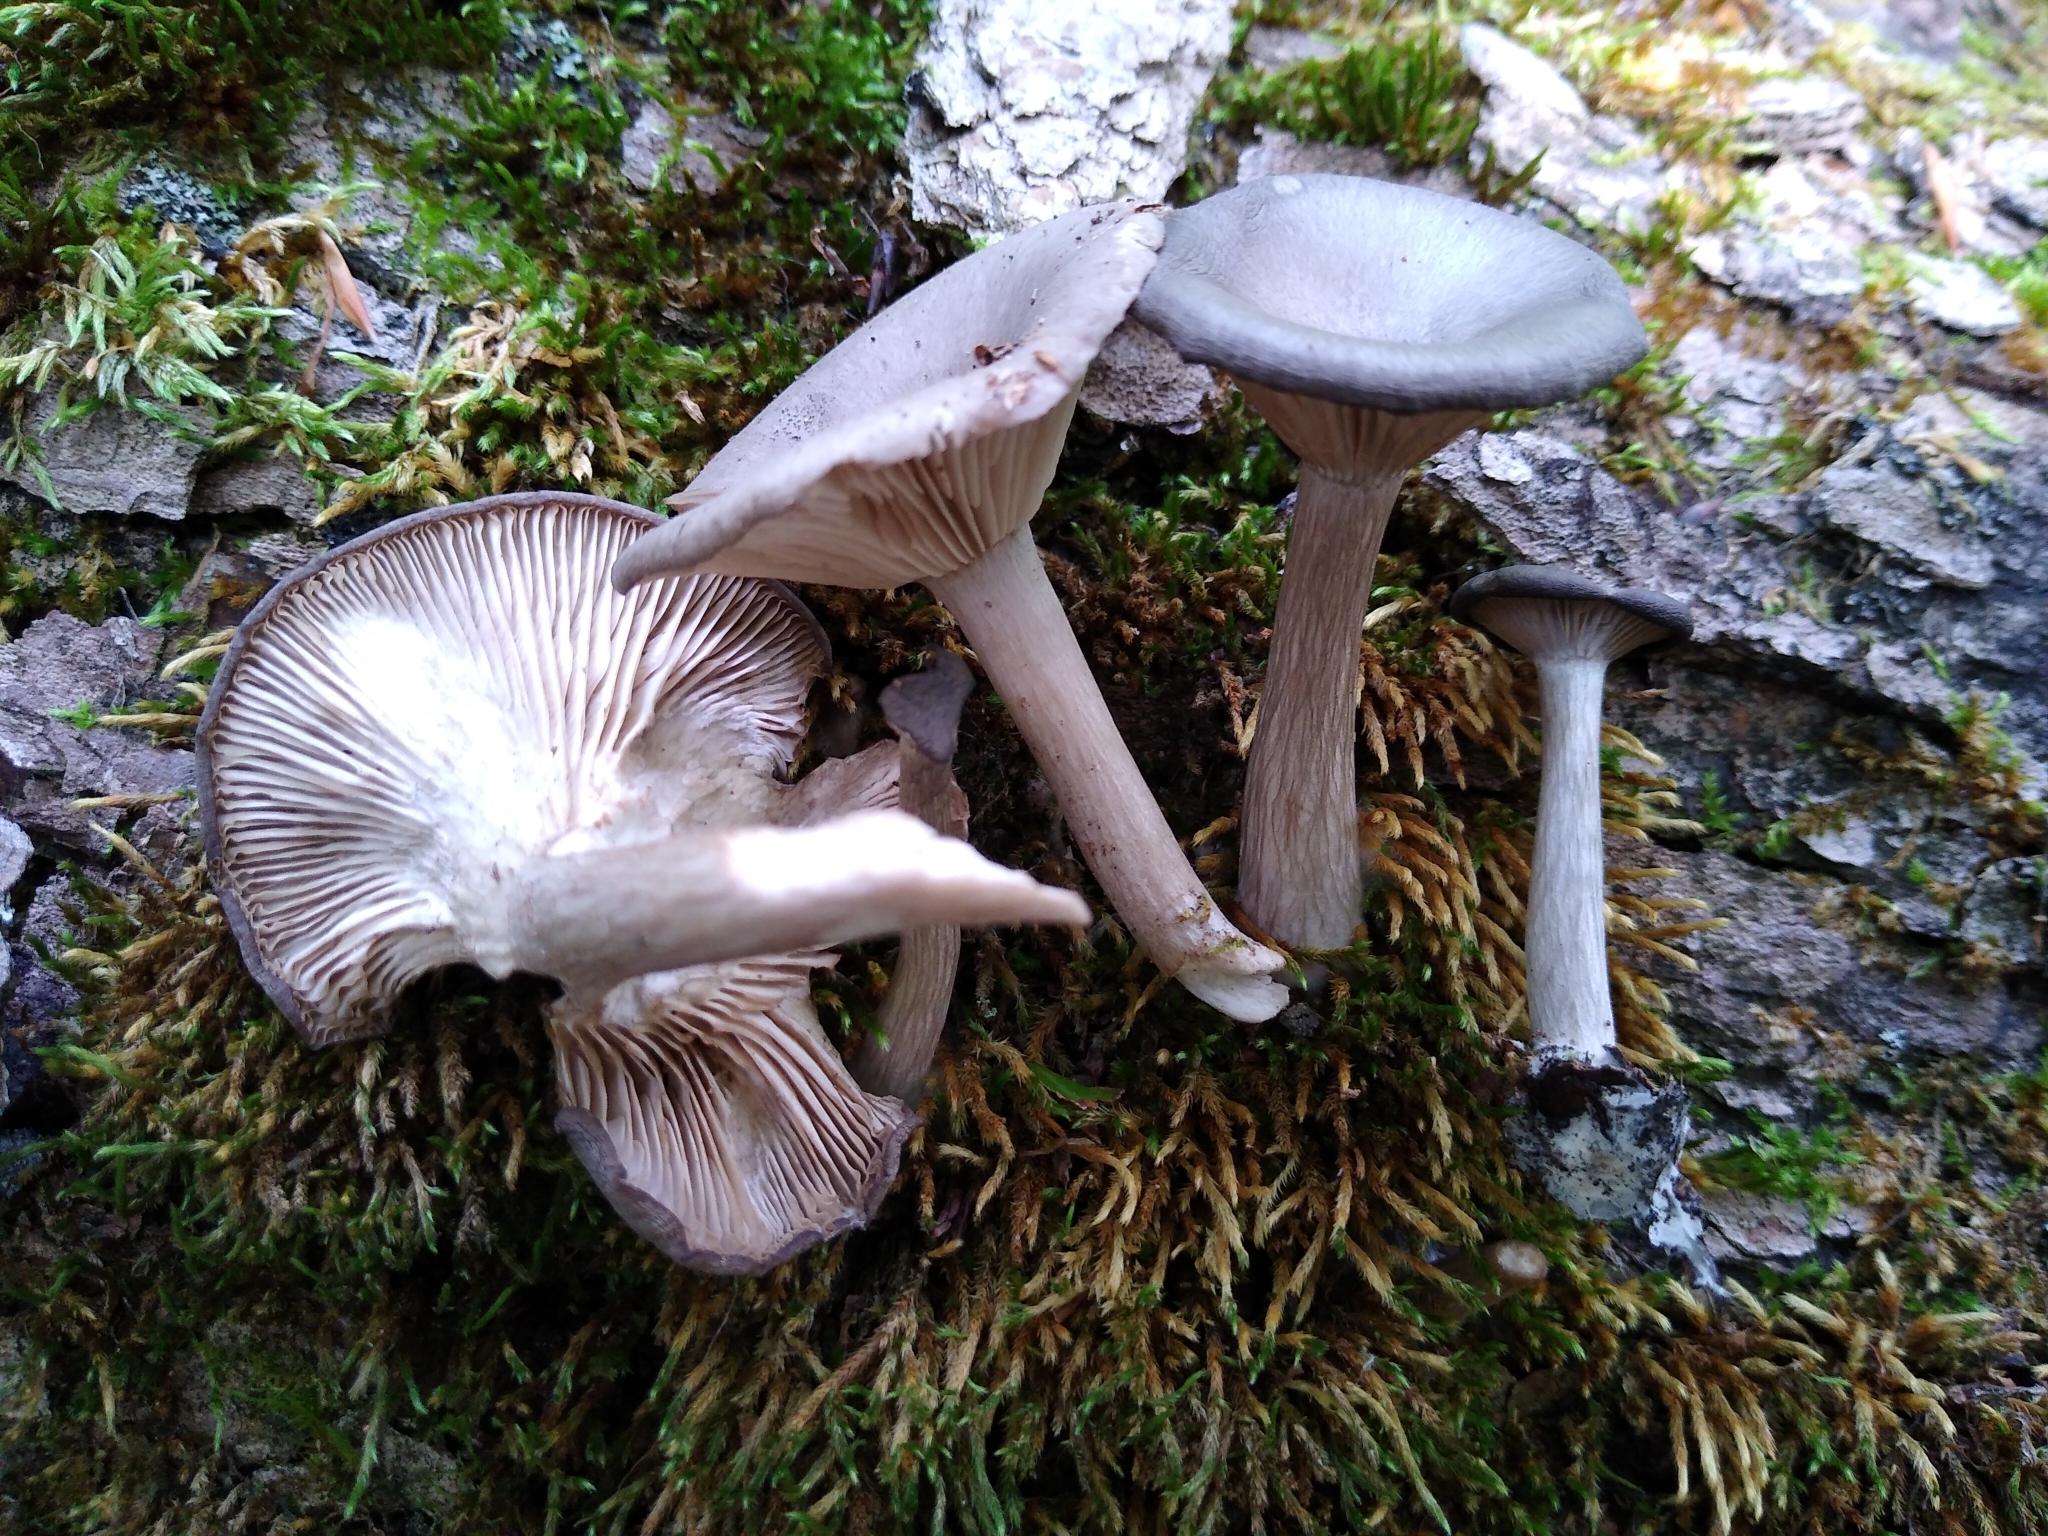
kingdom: Fungi
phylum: Basidiomycota
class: Agaricomycetes
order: Agaricales
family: Pseudoclitocybaceae
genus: Pseudoclitocybe
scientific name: Pseudoclitocybe cyathiformis
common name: Goblet
